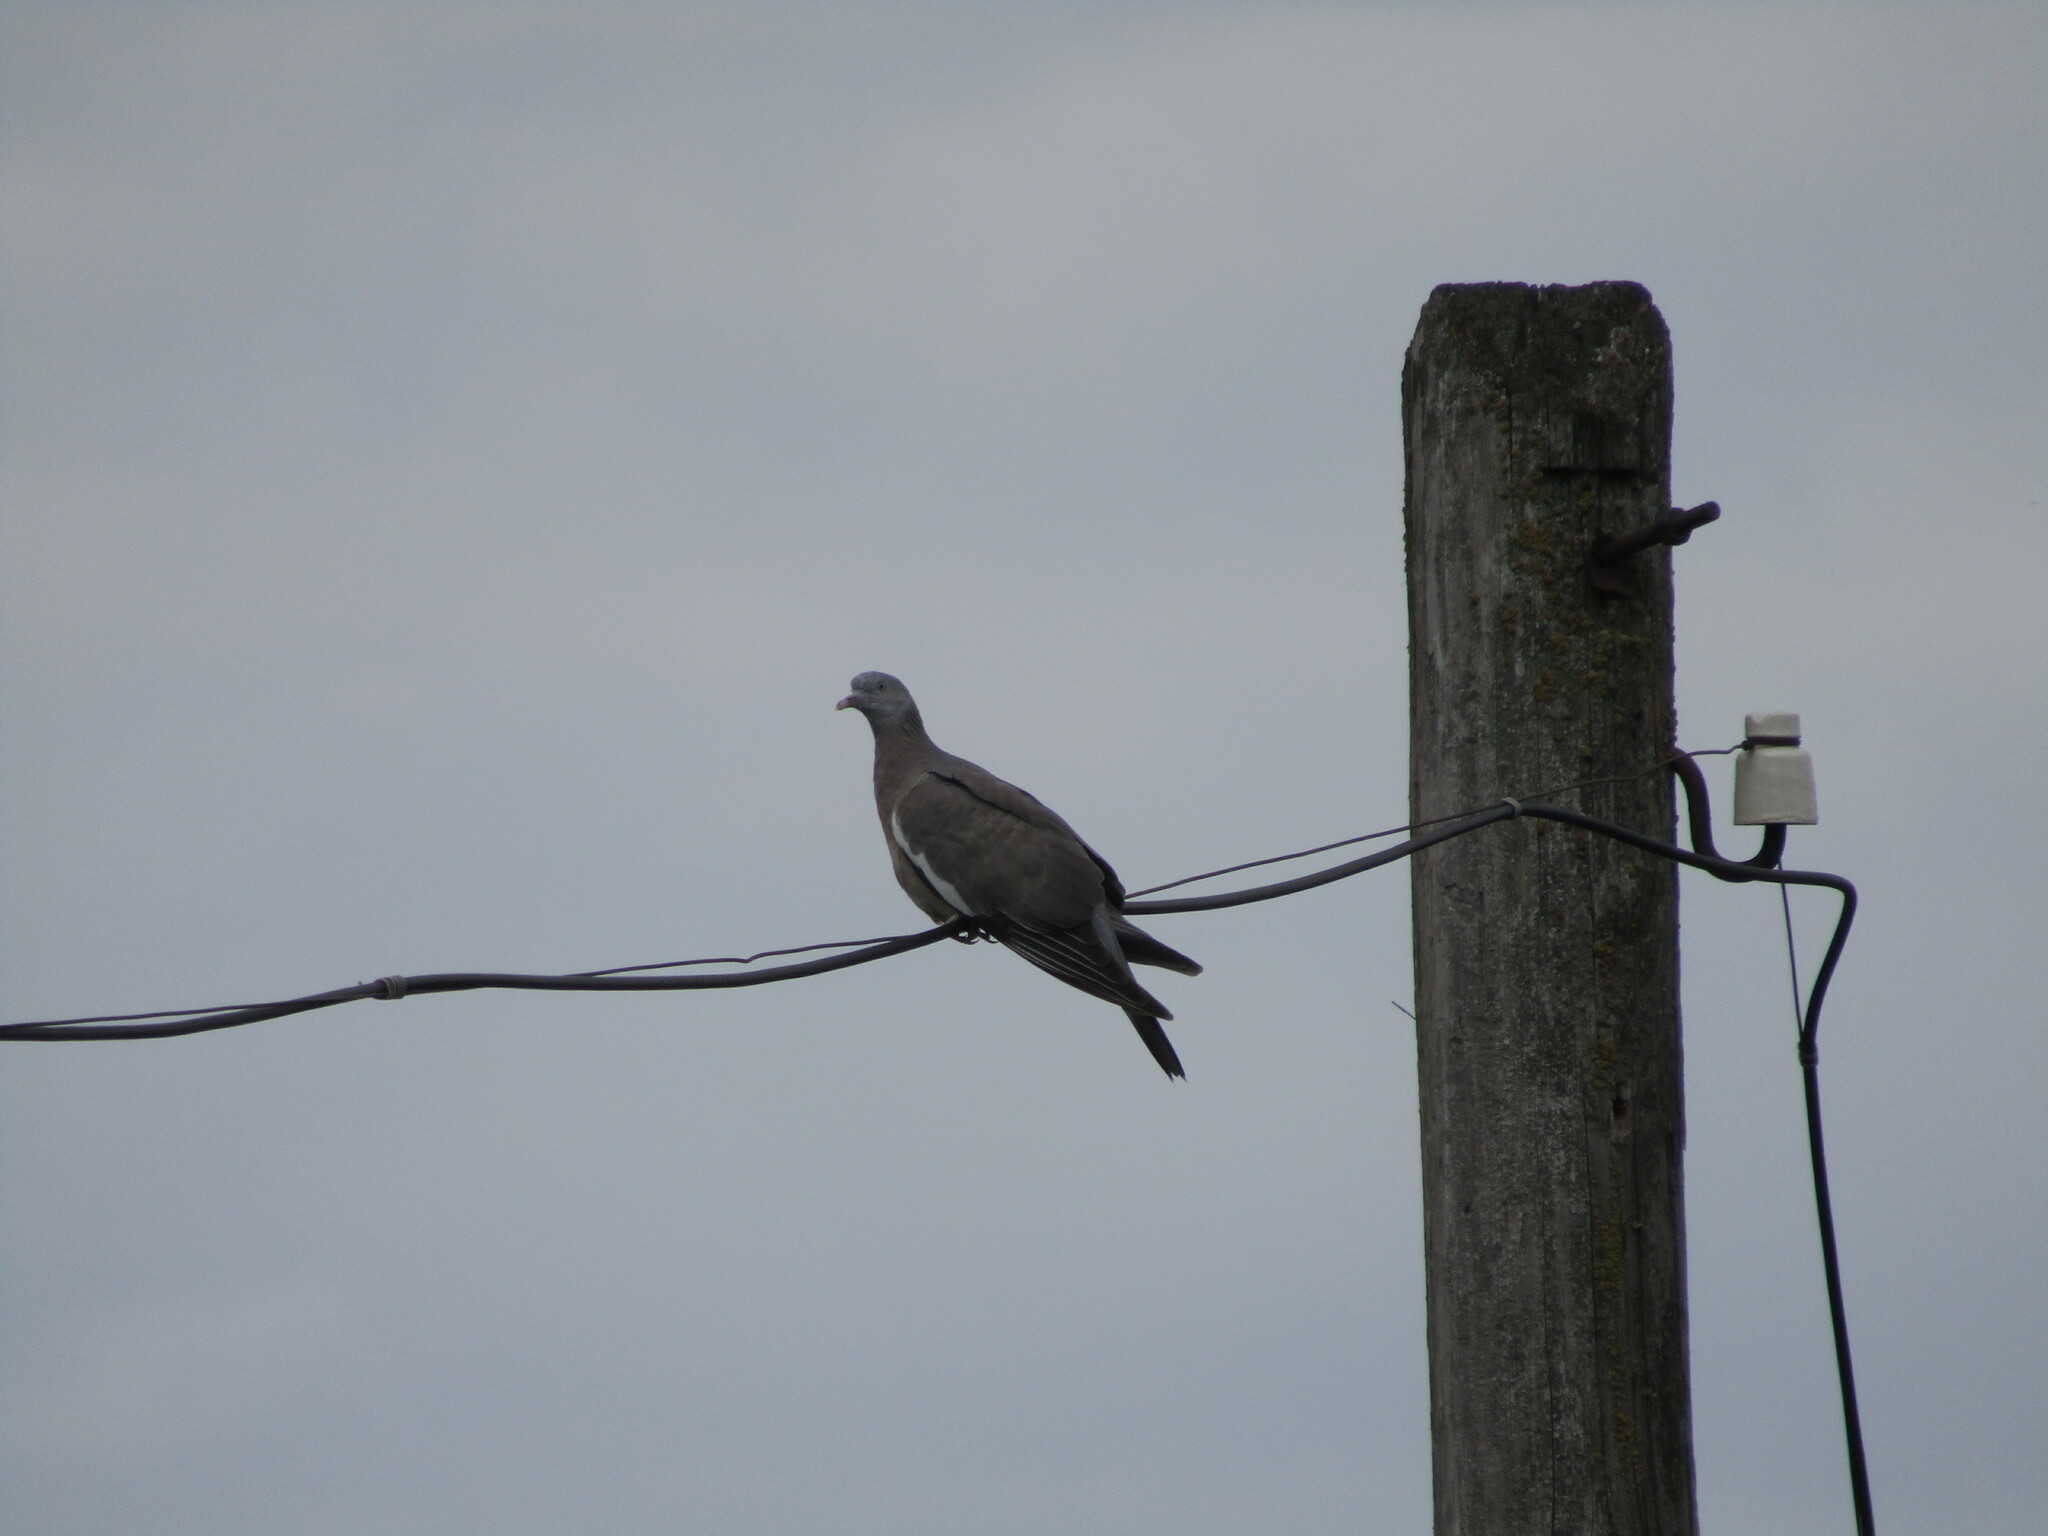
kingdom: Animalia
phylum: Chordata
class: Aves
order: Columbiformes
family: Columbidae
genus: Columba
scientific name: Columba palumbus
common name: Common wood pigeon
